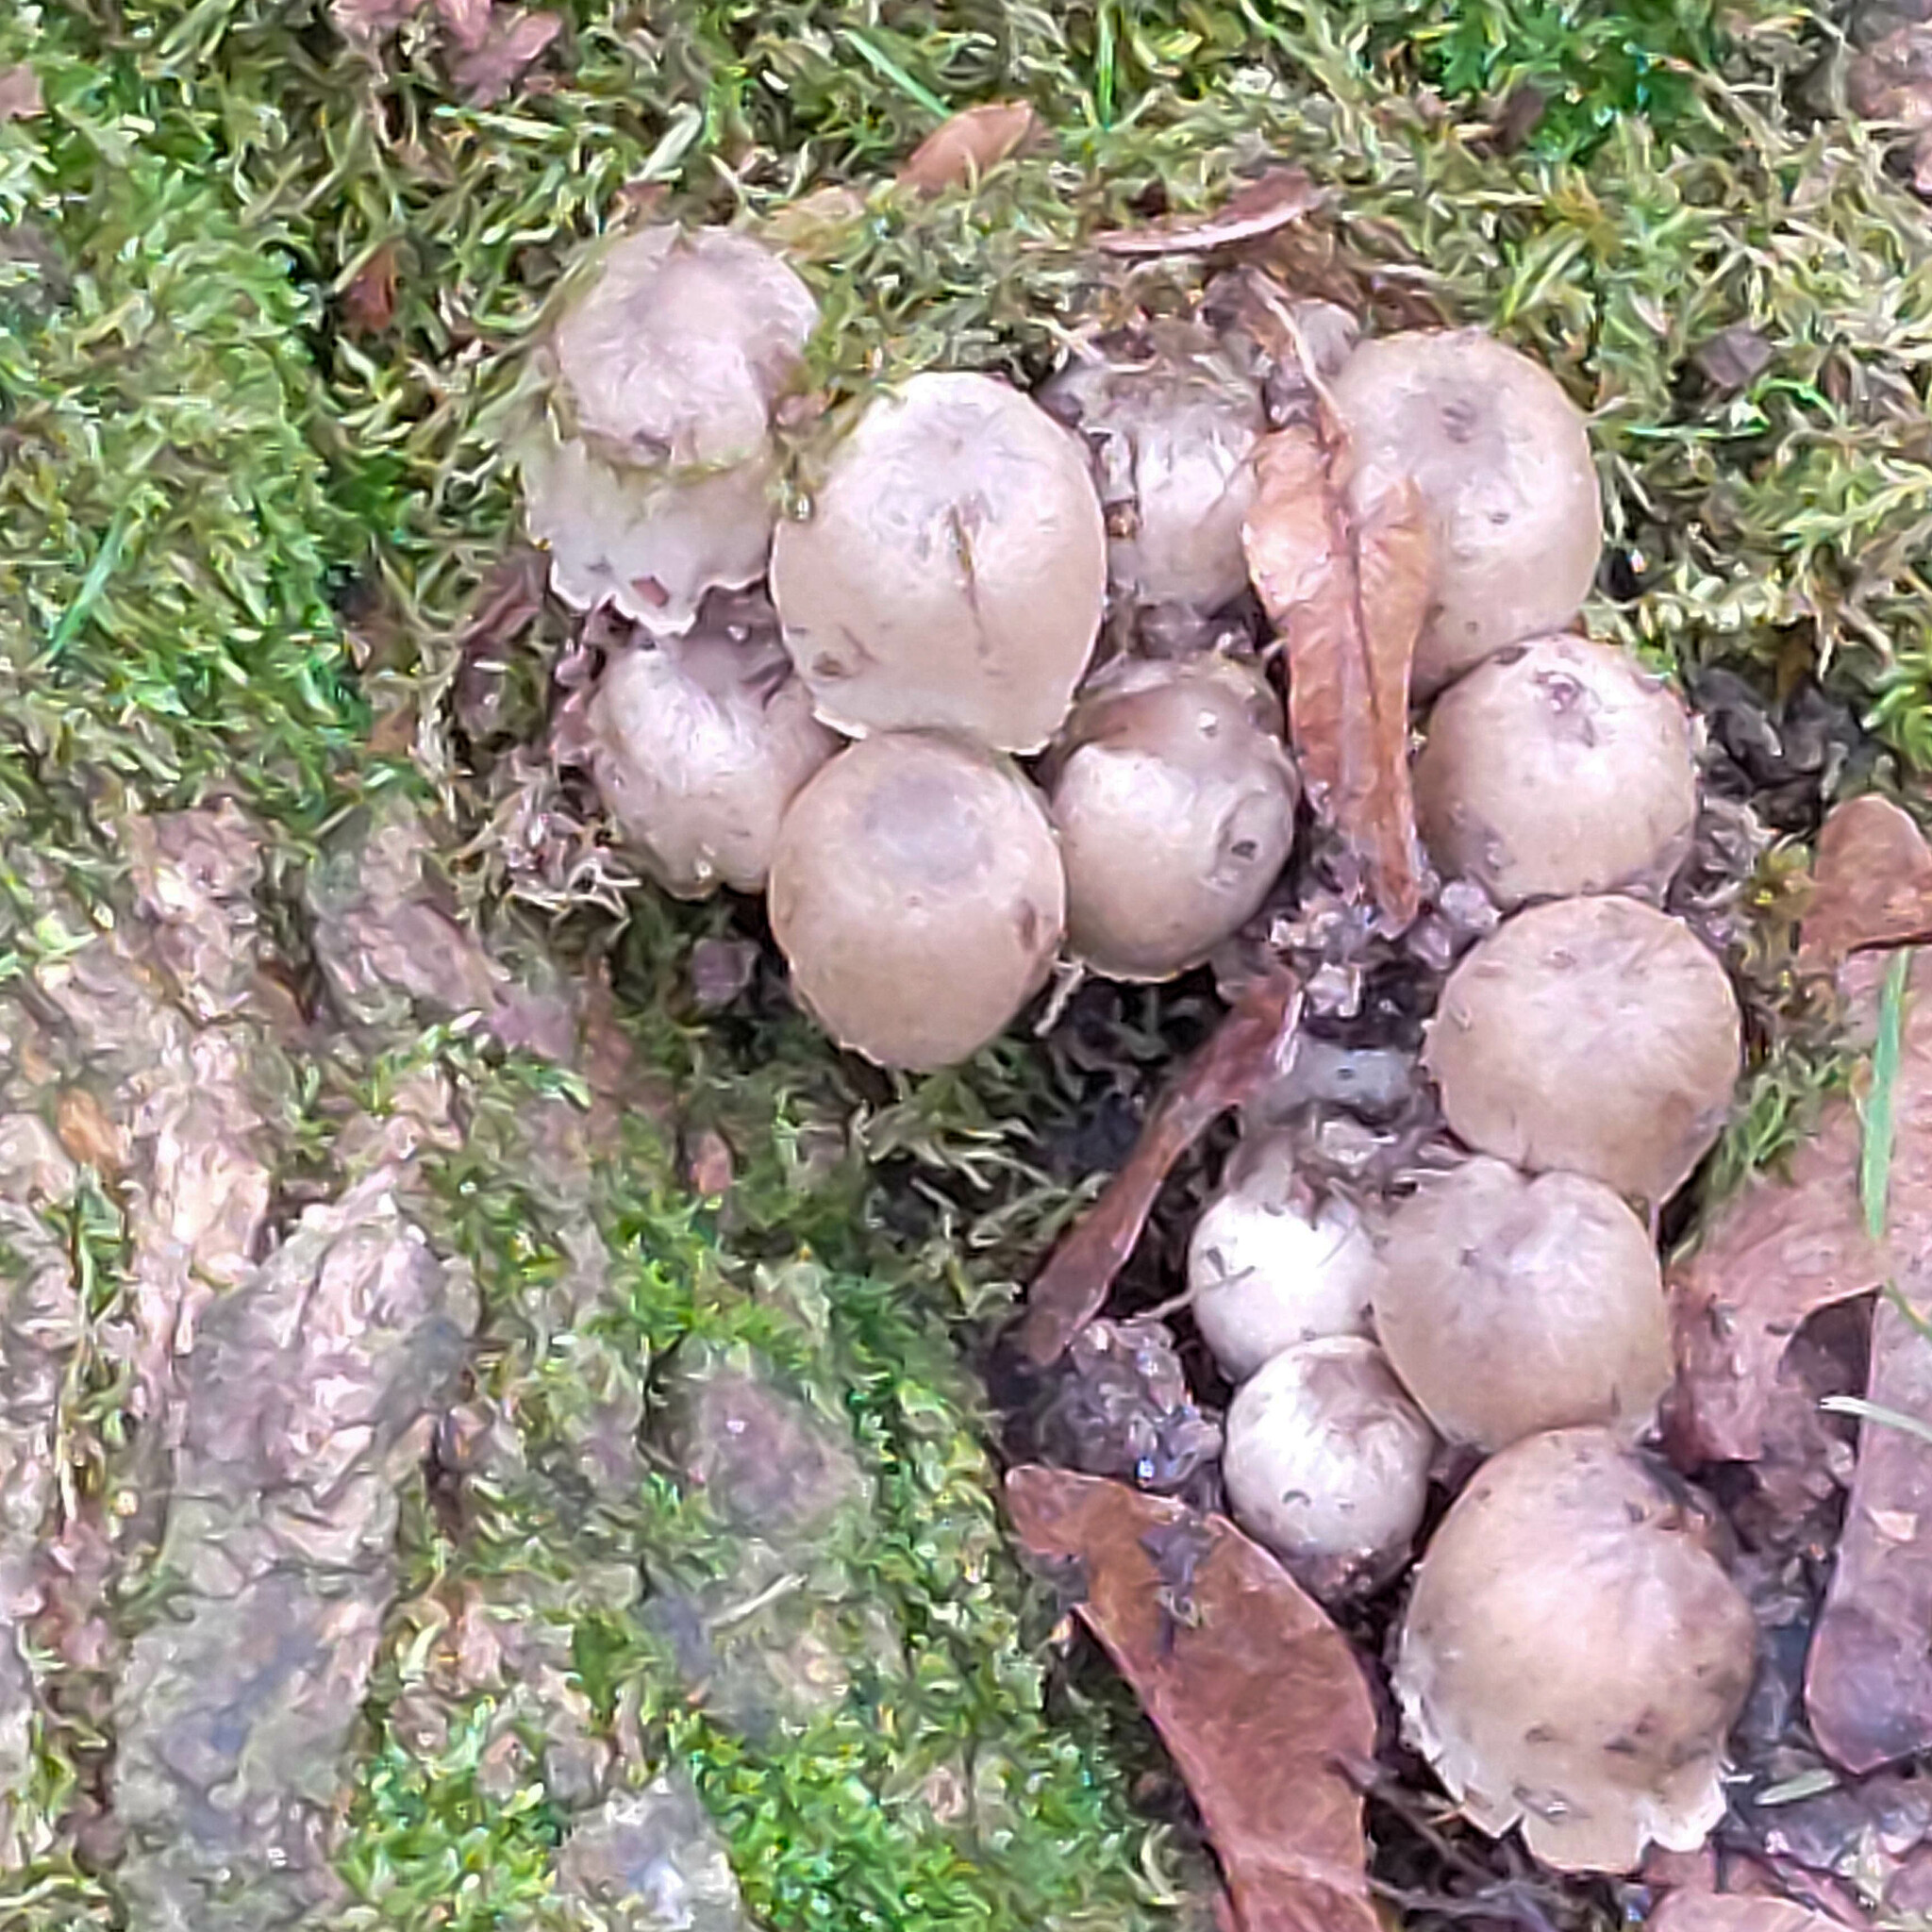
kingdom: Fungi
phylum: Basidiomycota
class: Agaricomycetes
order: Agaricales
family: Psathyrellaceae
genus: Coprinopsis
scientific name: Coprinopsis atramentaria
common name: Common ink-cap
